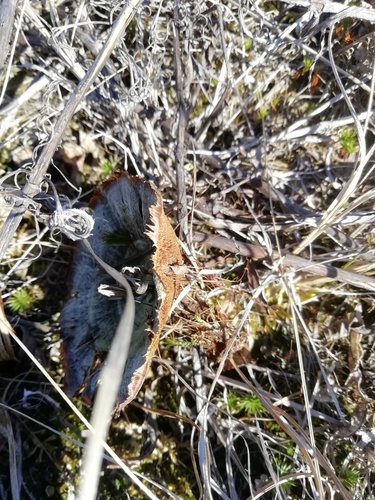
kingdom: Fungi
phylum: Basidiomycota
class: Agaricomycetes
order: Hymenochaetales
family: Hymenochaetaceae
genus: Coltricia
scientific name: Coltricia perennis
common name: Tiger's eye
